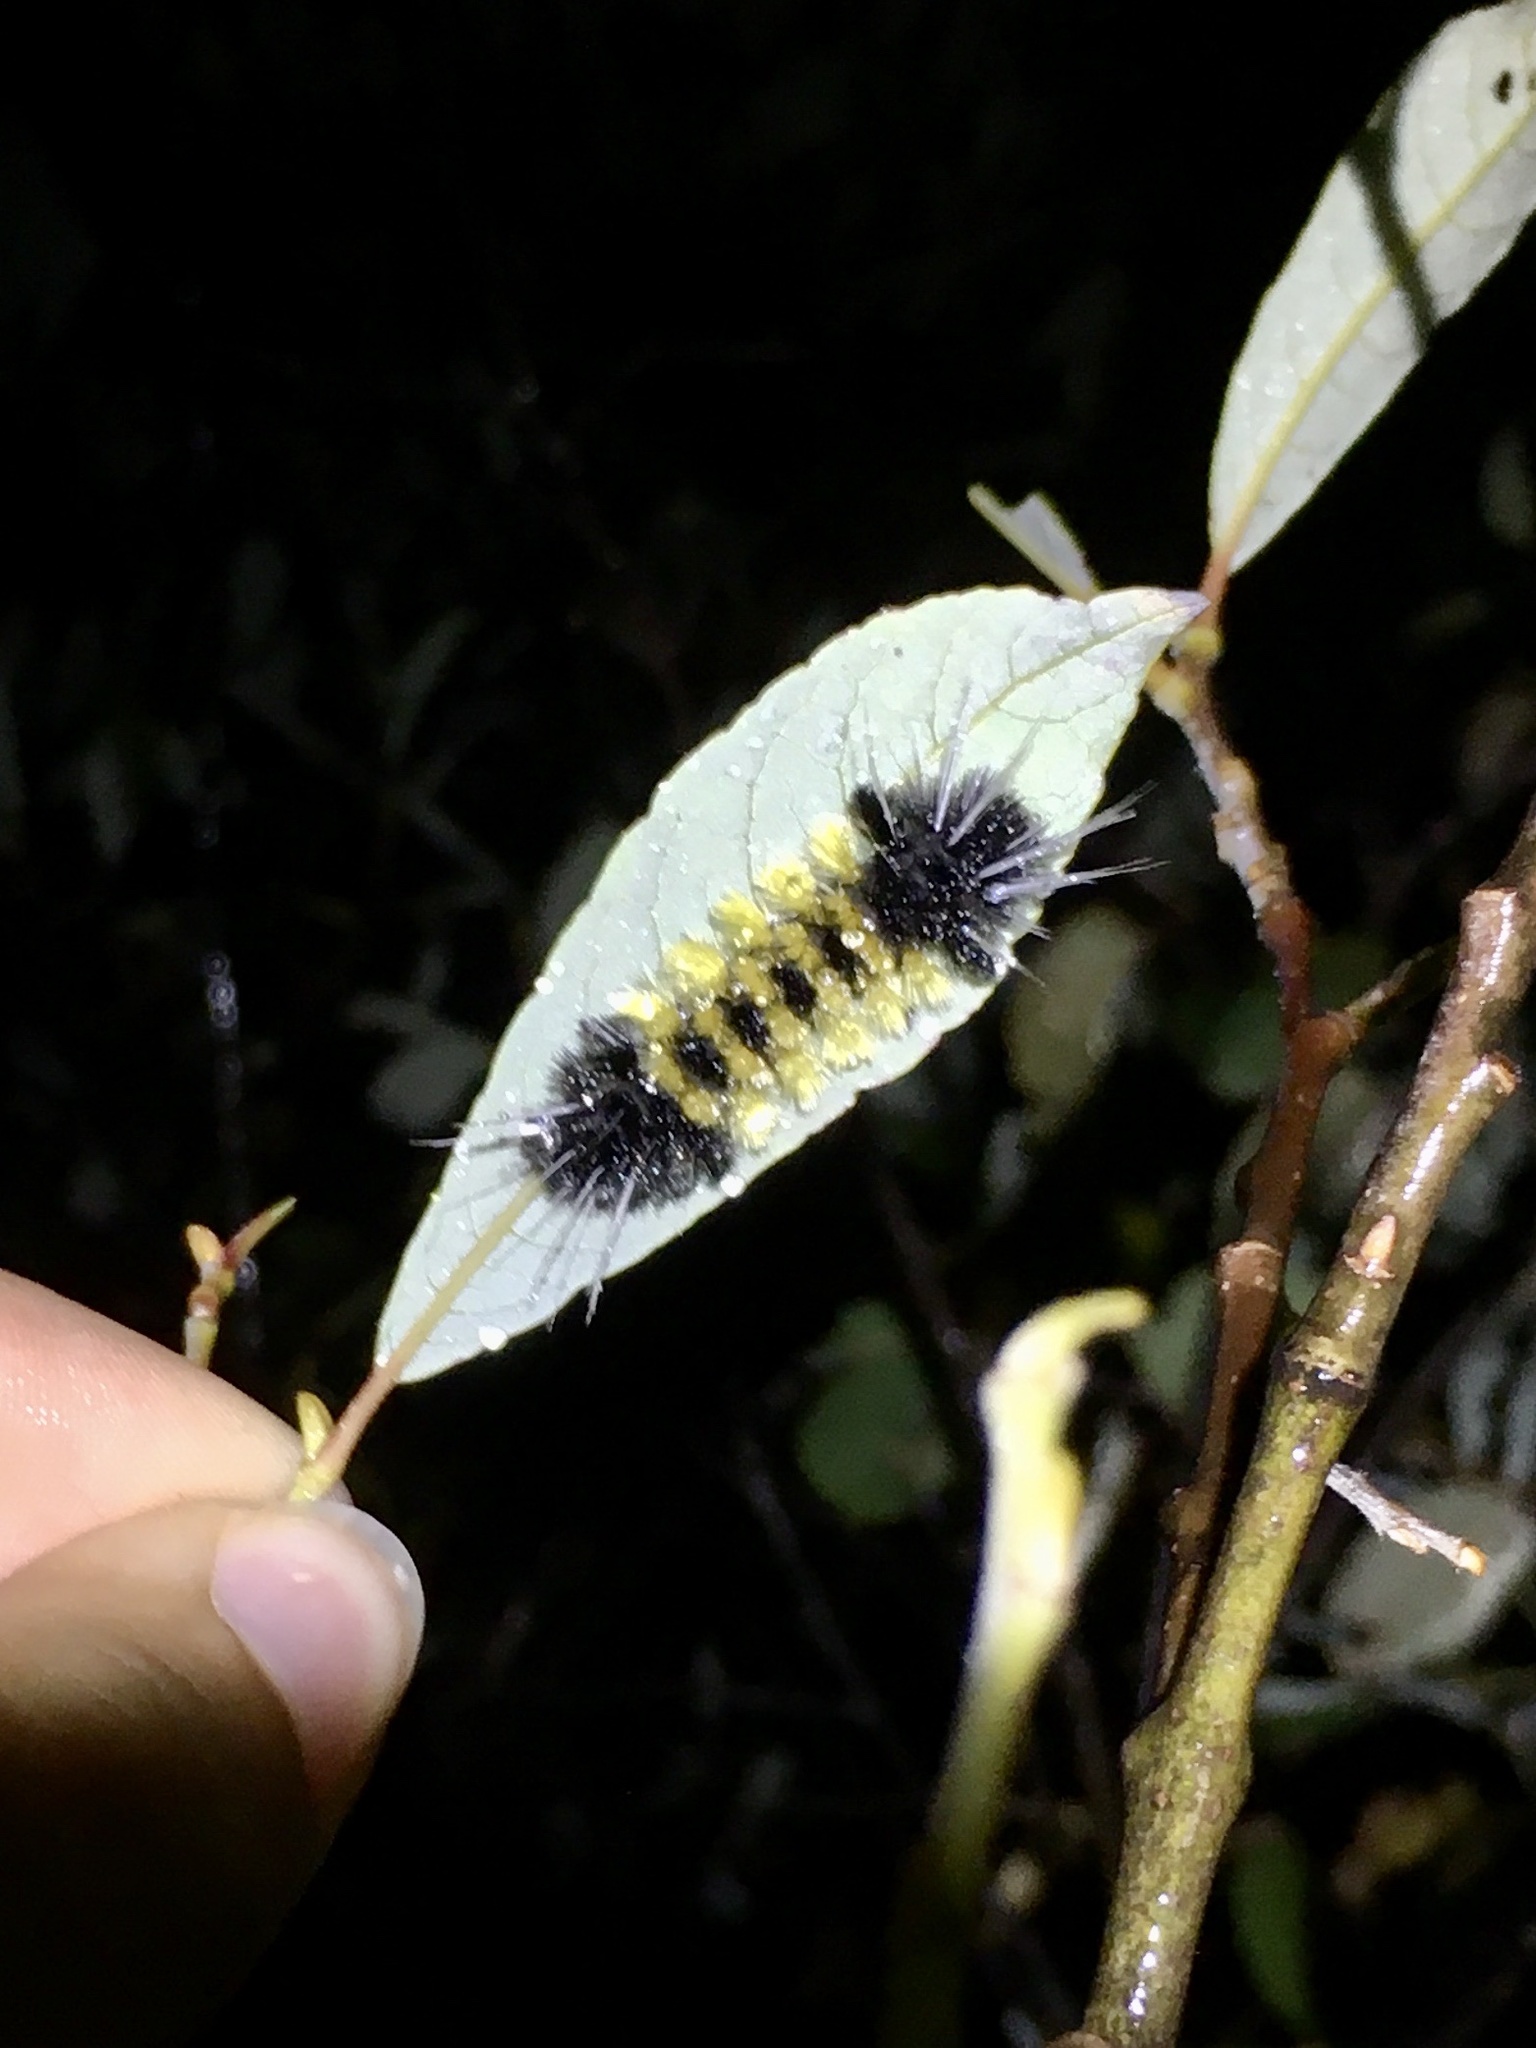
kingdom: Animalia
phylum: Arthropoda
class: Insecta
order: Lepidoptera
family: Erebidae
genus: Lophocampa
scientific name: Lophocampa maculata
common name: Spotted tussock moth
